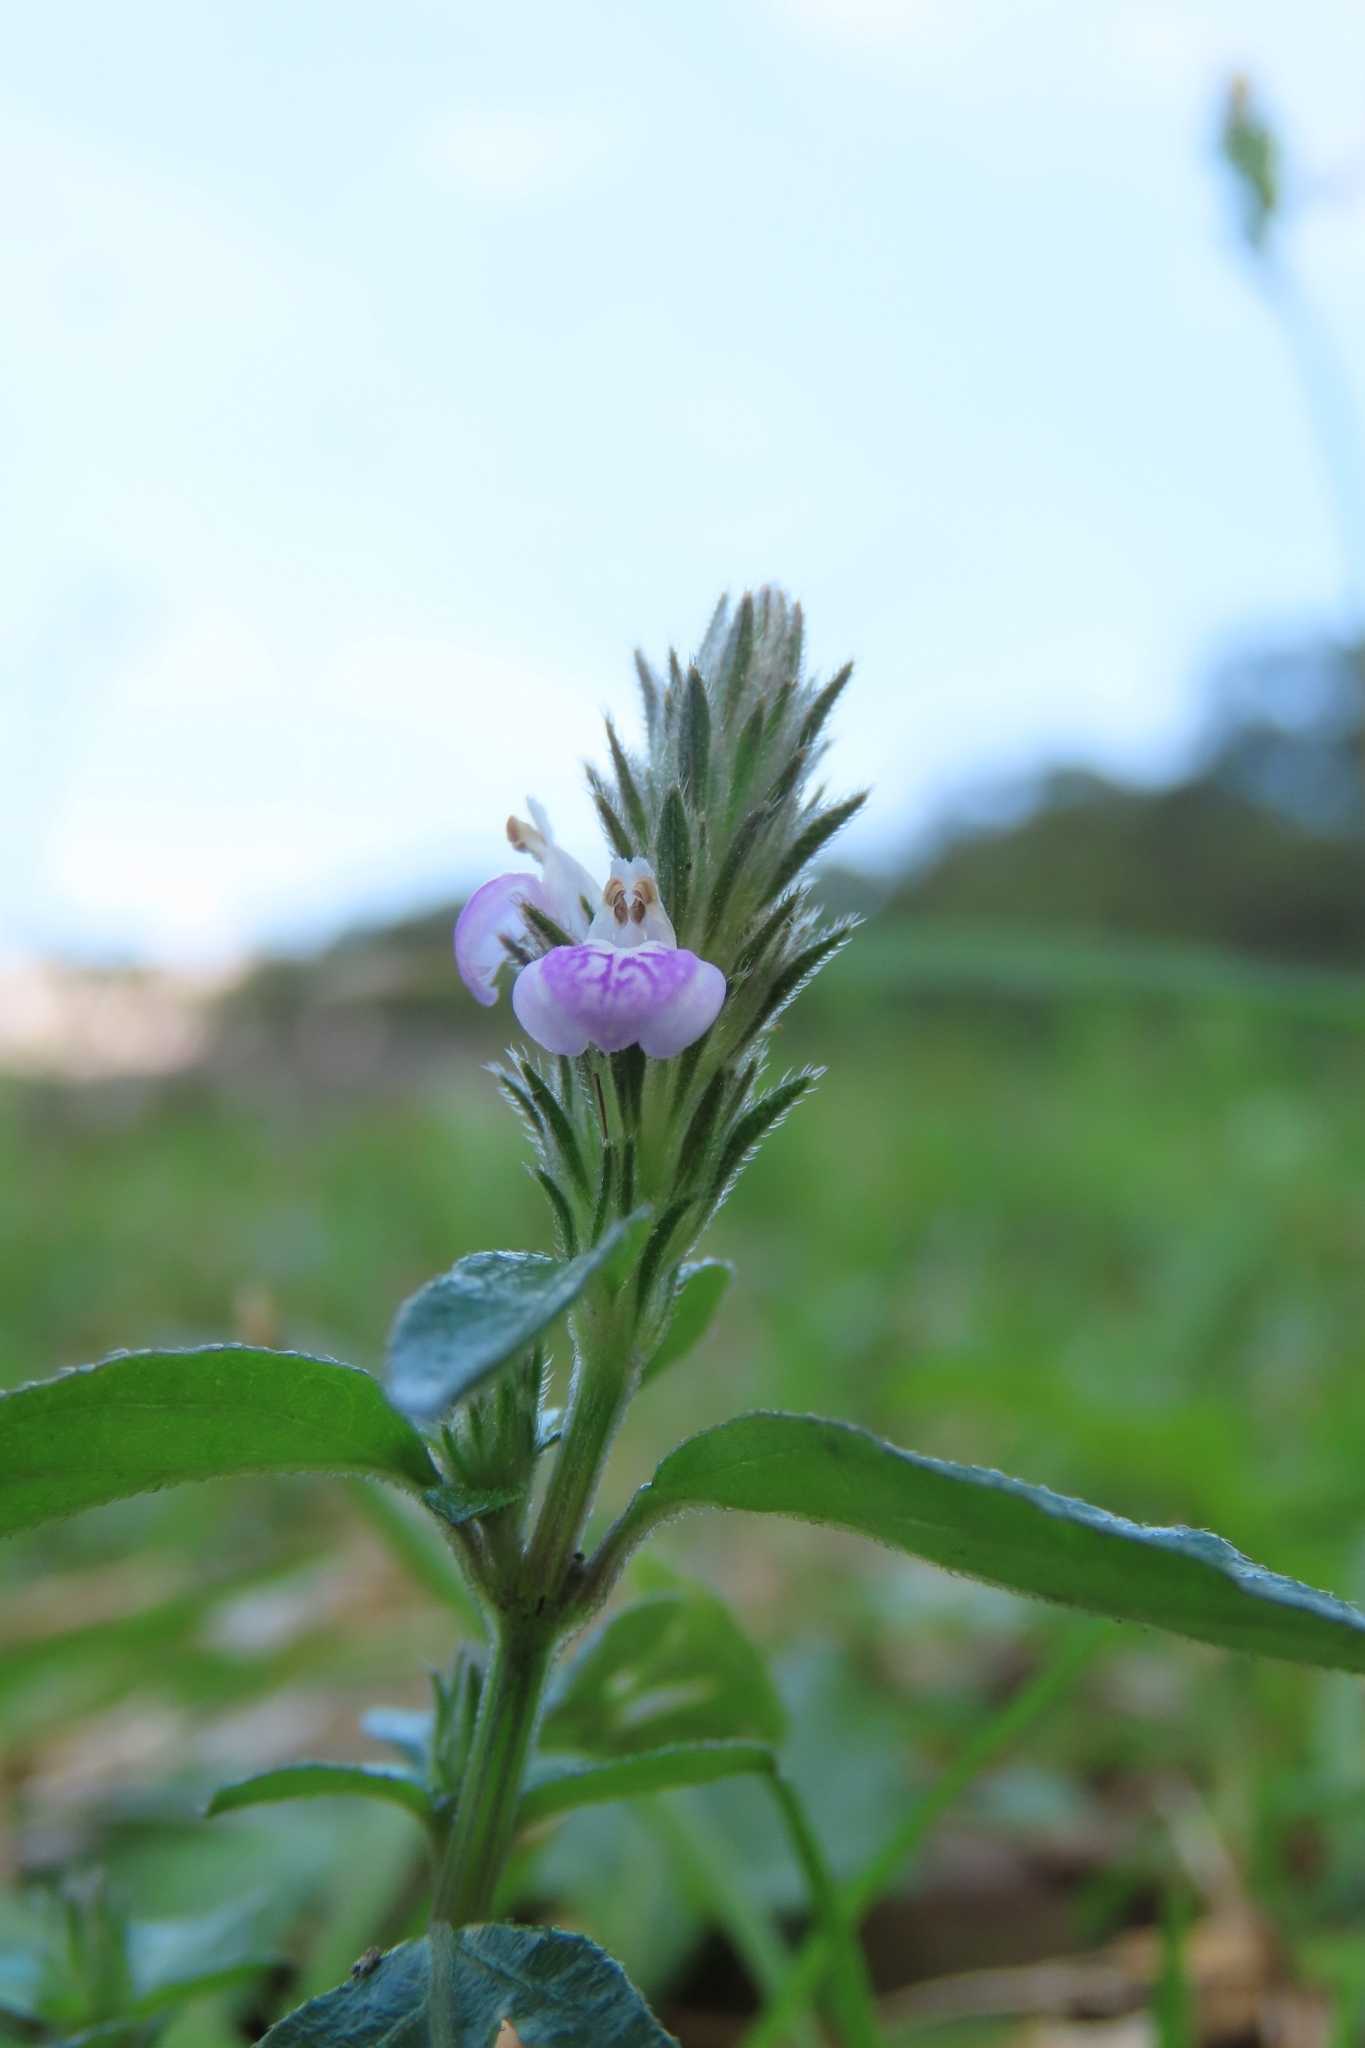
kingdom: Plantae
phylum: Tracheophyta
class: Magnoliopsida
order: Lamiales
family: Acanthaceae
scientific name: Acanthaceae
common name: Acanthaceae
